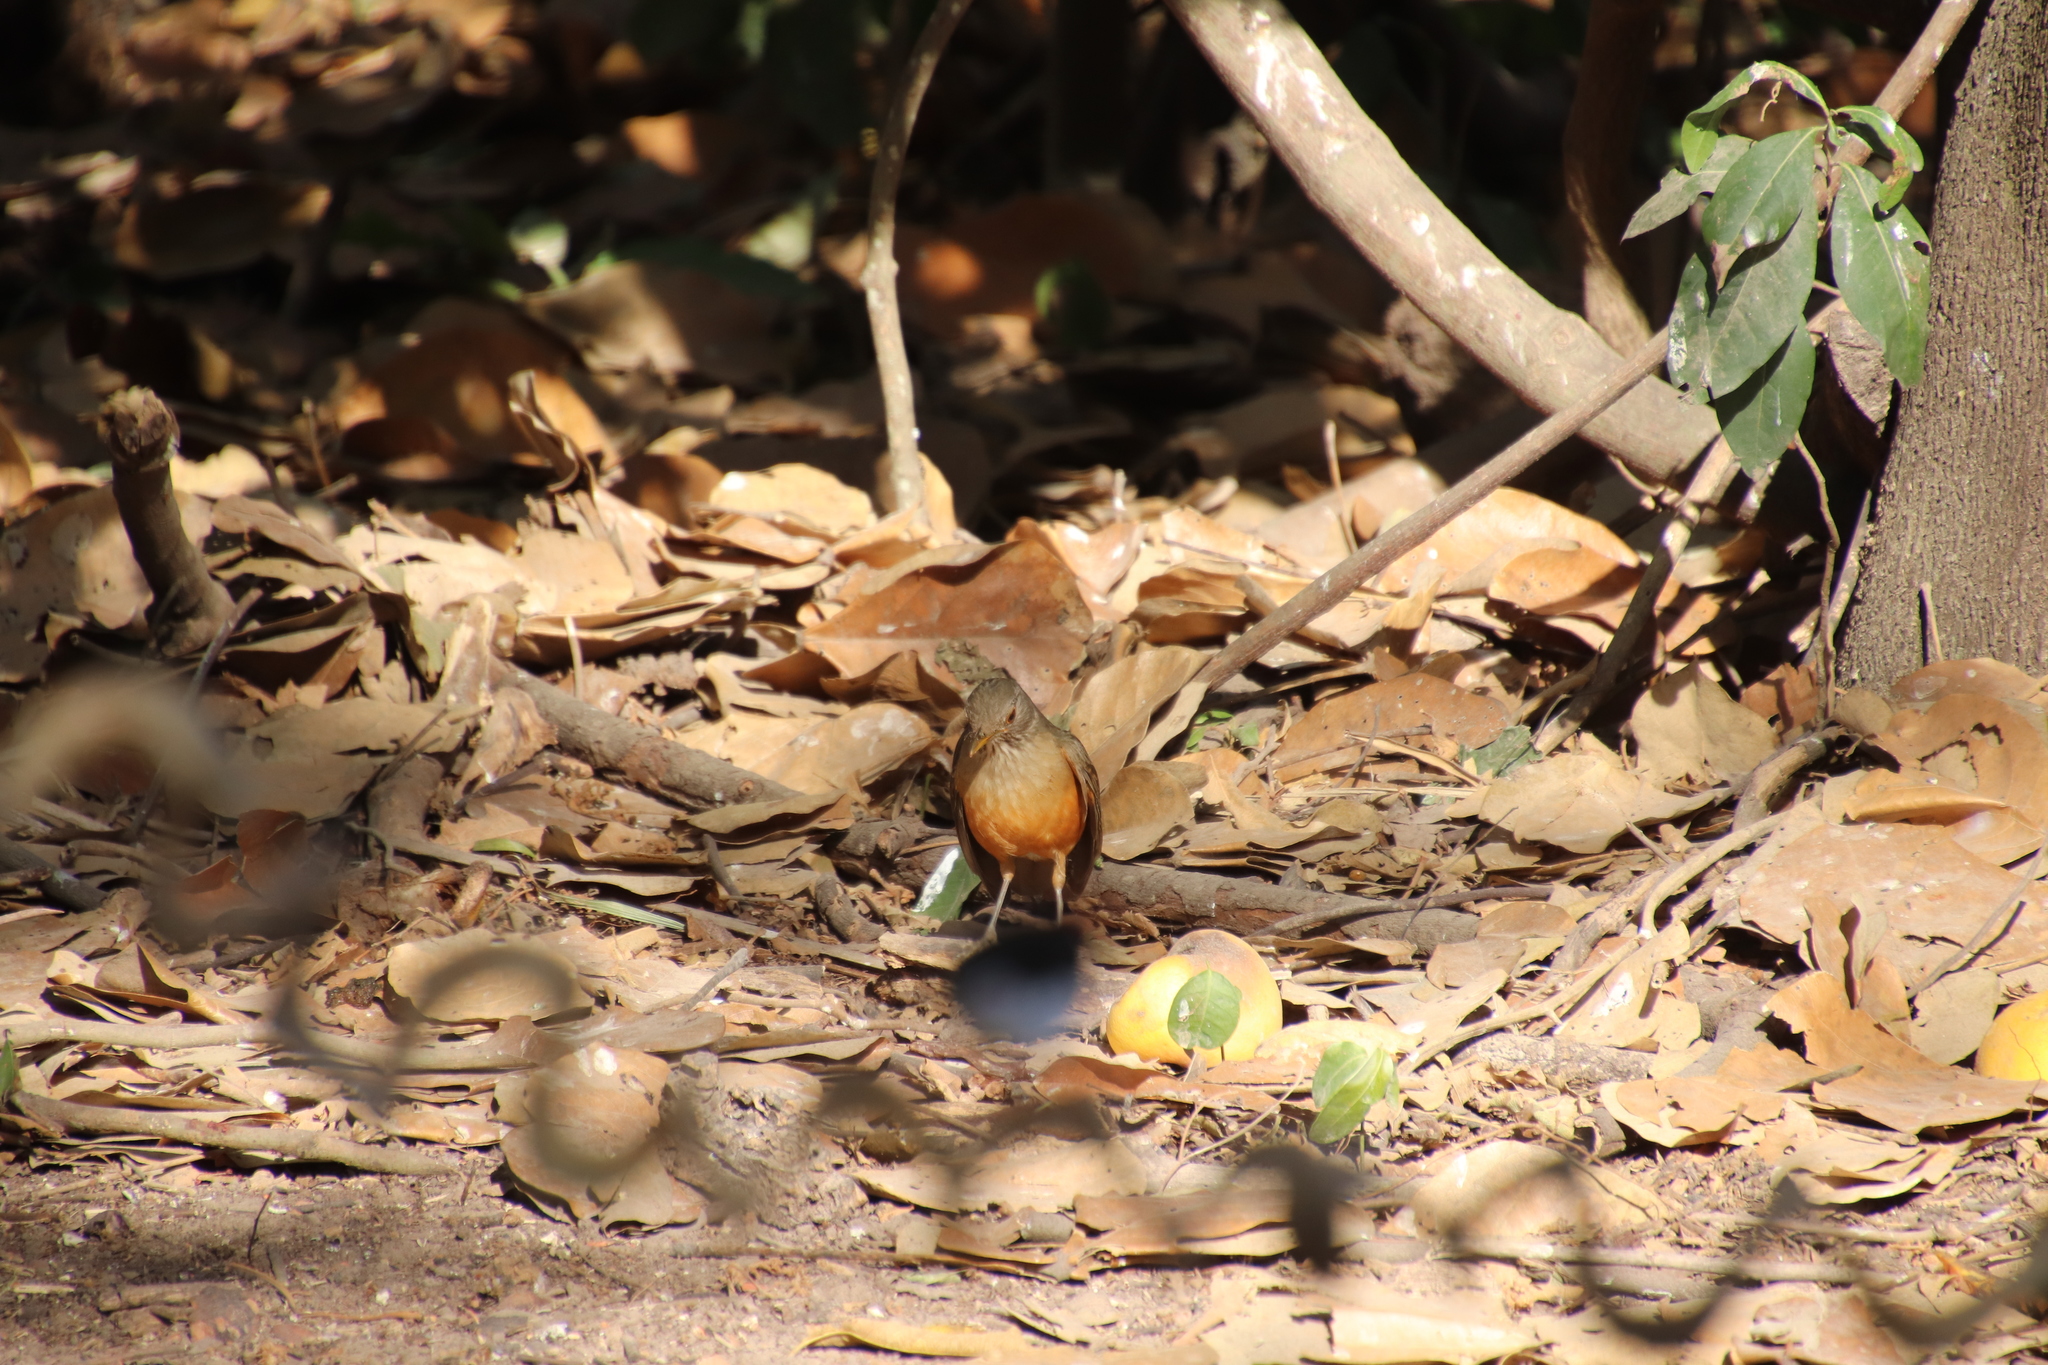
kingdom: Animalia
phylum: Chordata
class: Aves
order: Passeriformes
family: Turdidae
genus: Turdus
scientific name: Turdus rufiventris
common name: Rufous-bellied thrush
